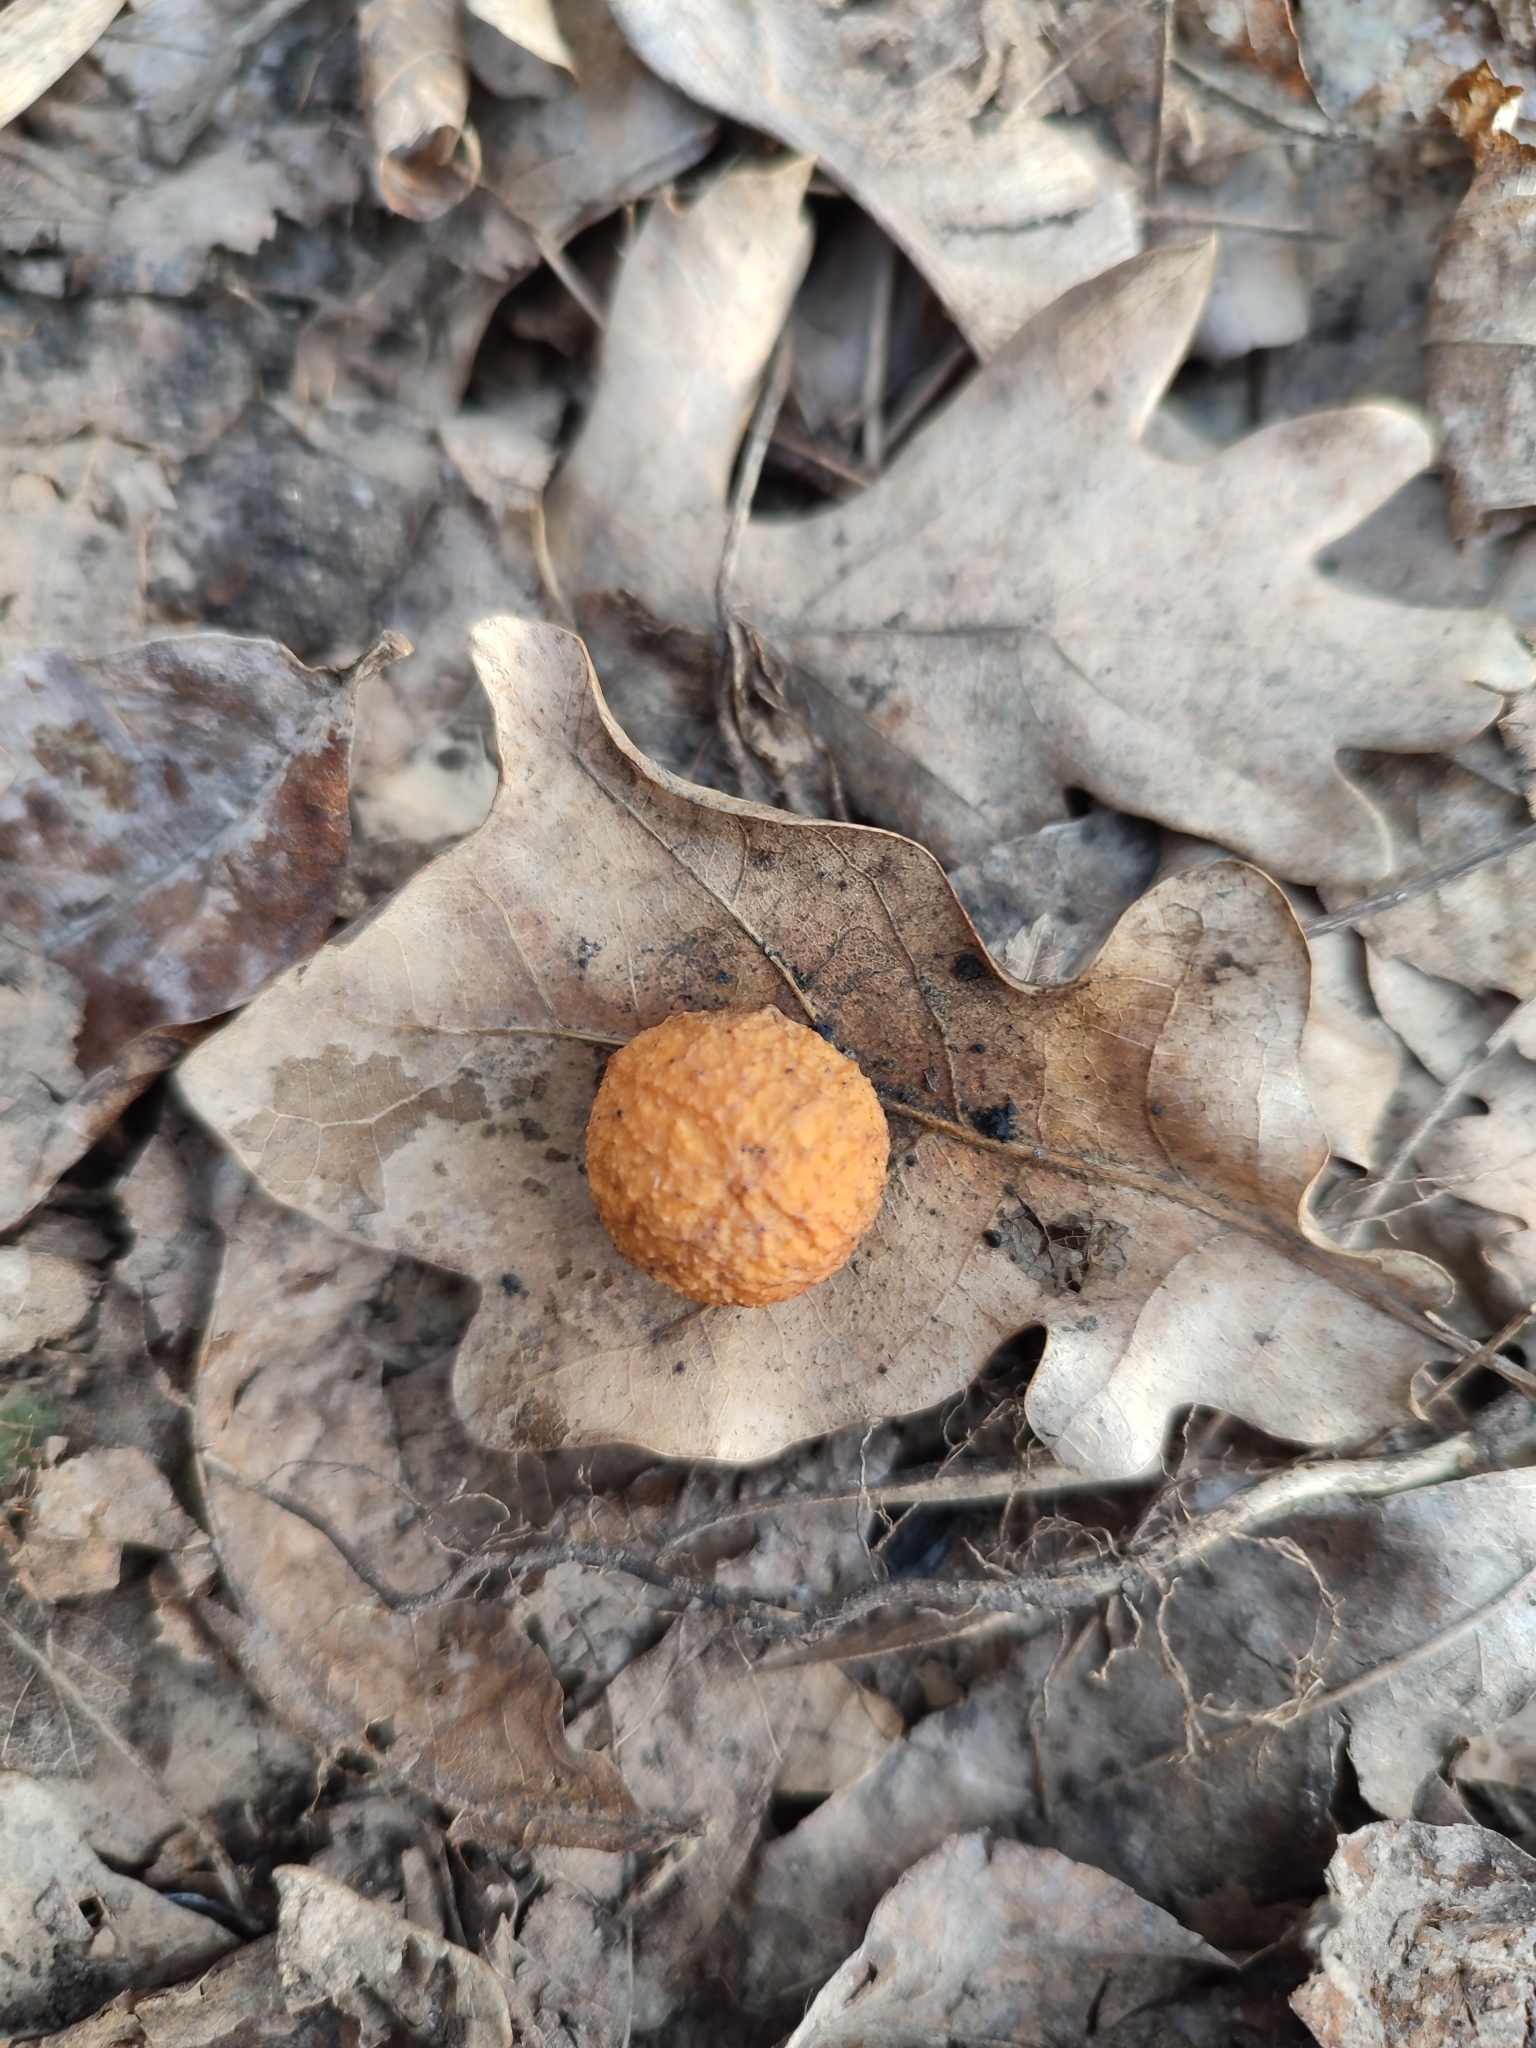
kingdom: Animalia
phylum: Arthropoda
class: Insecta
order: Hymenoptera
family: Cynipidae
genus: Cynips
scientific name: Cynips quercusfolii
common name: Cherry gall
